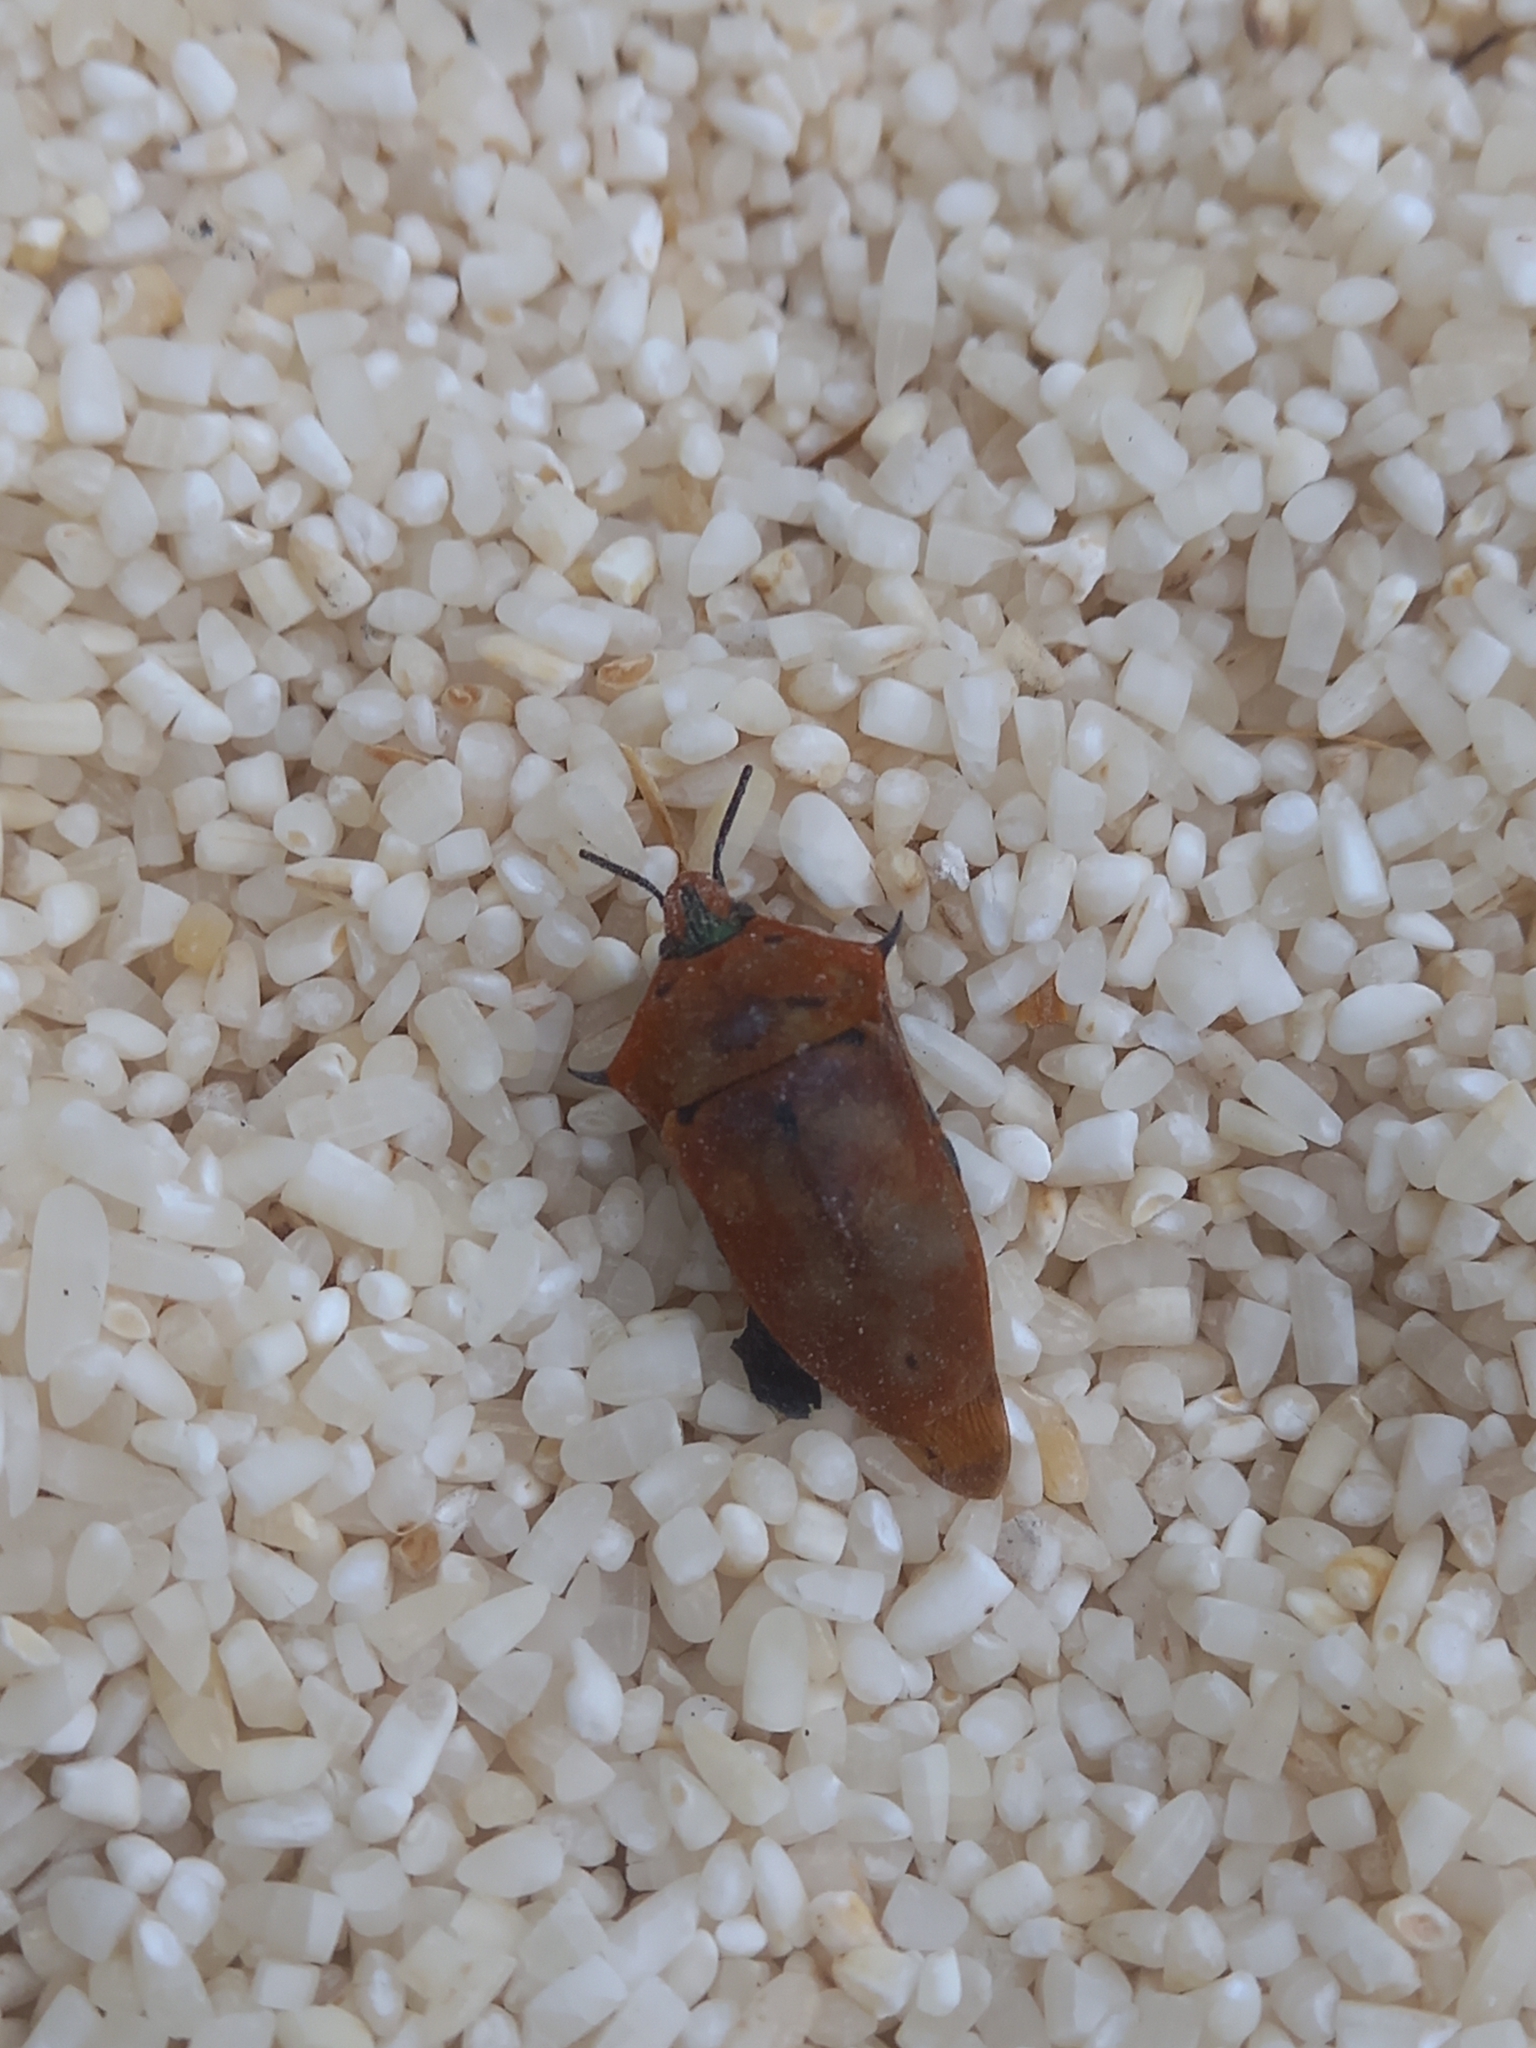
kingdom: Animalia
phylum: Arthropoda
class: Insecta
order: Hemiptera
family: Scutelleridae
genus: Cantao
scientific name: Cantao ocellatus
